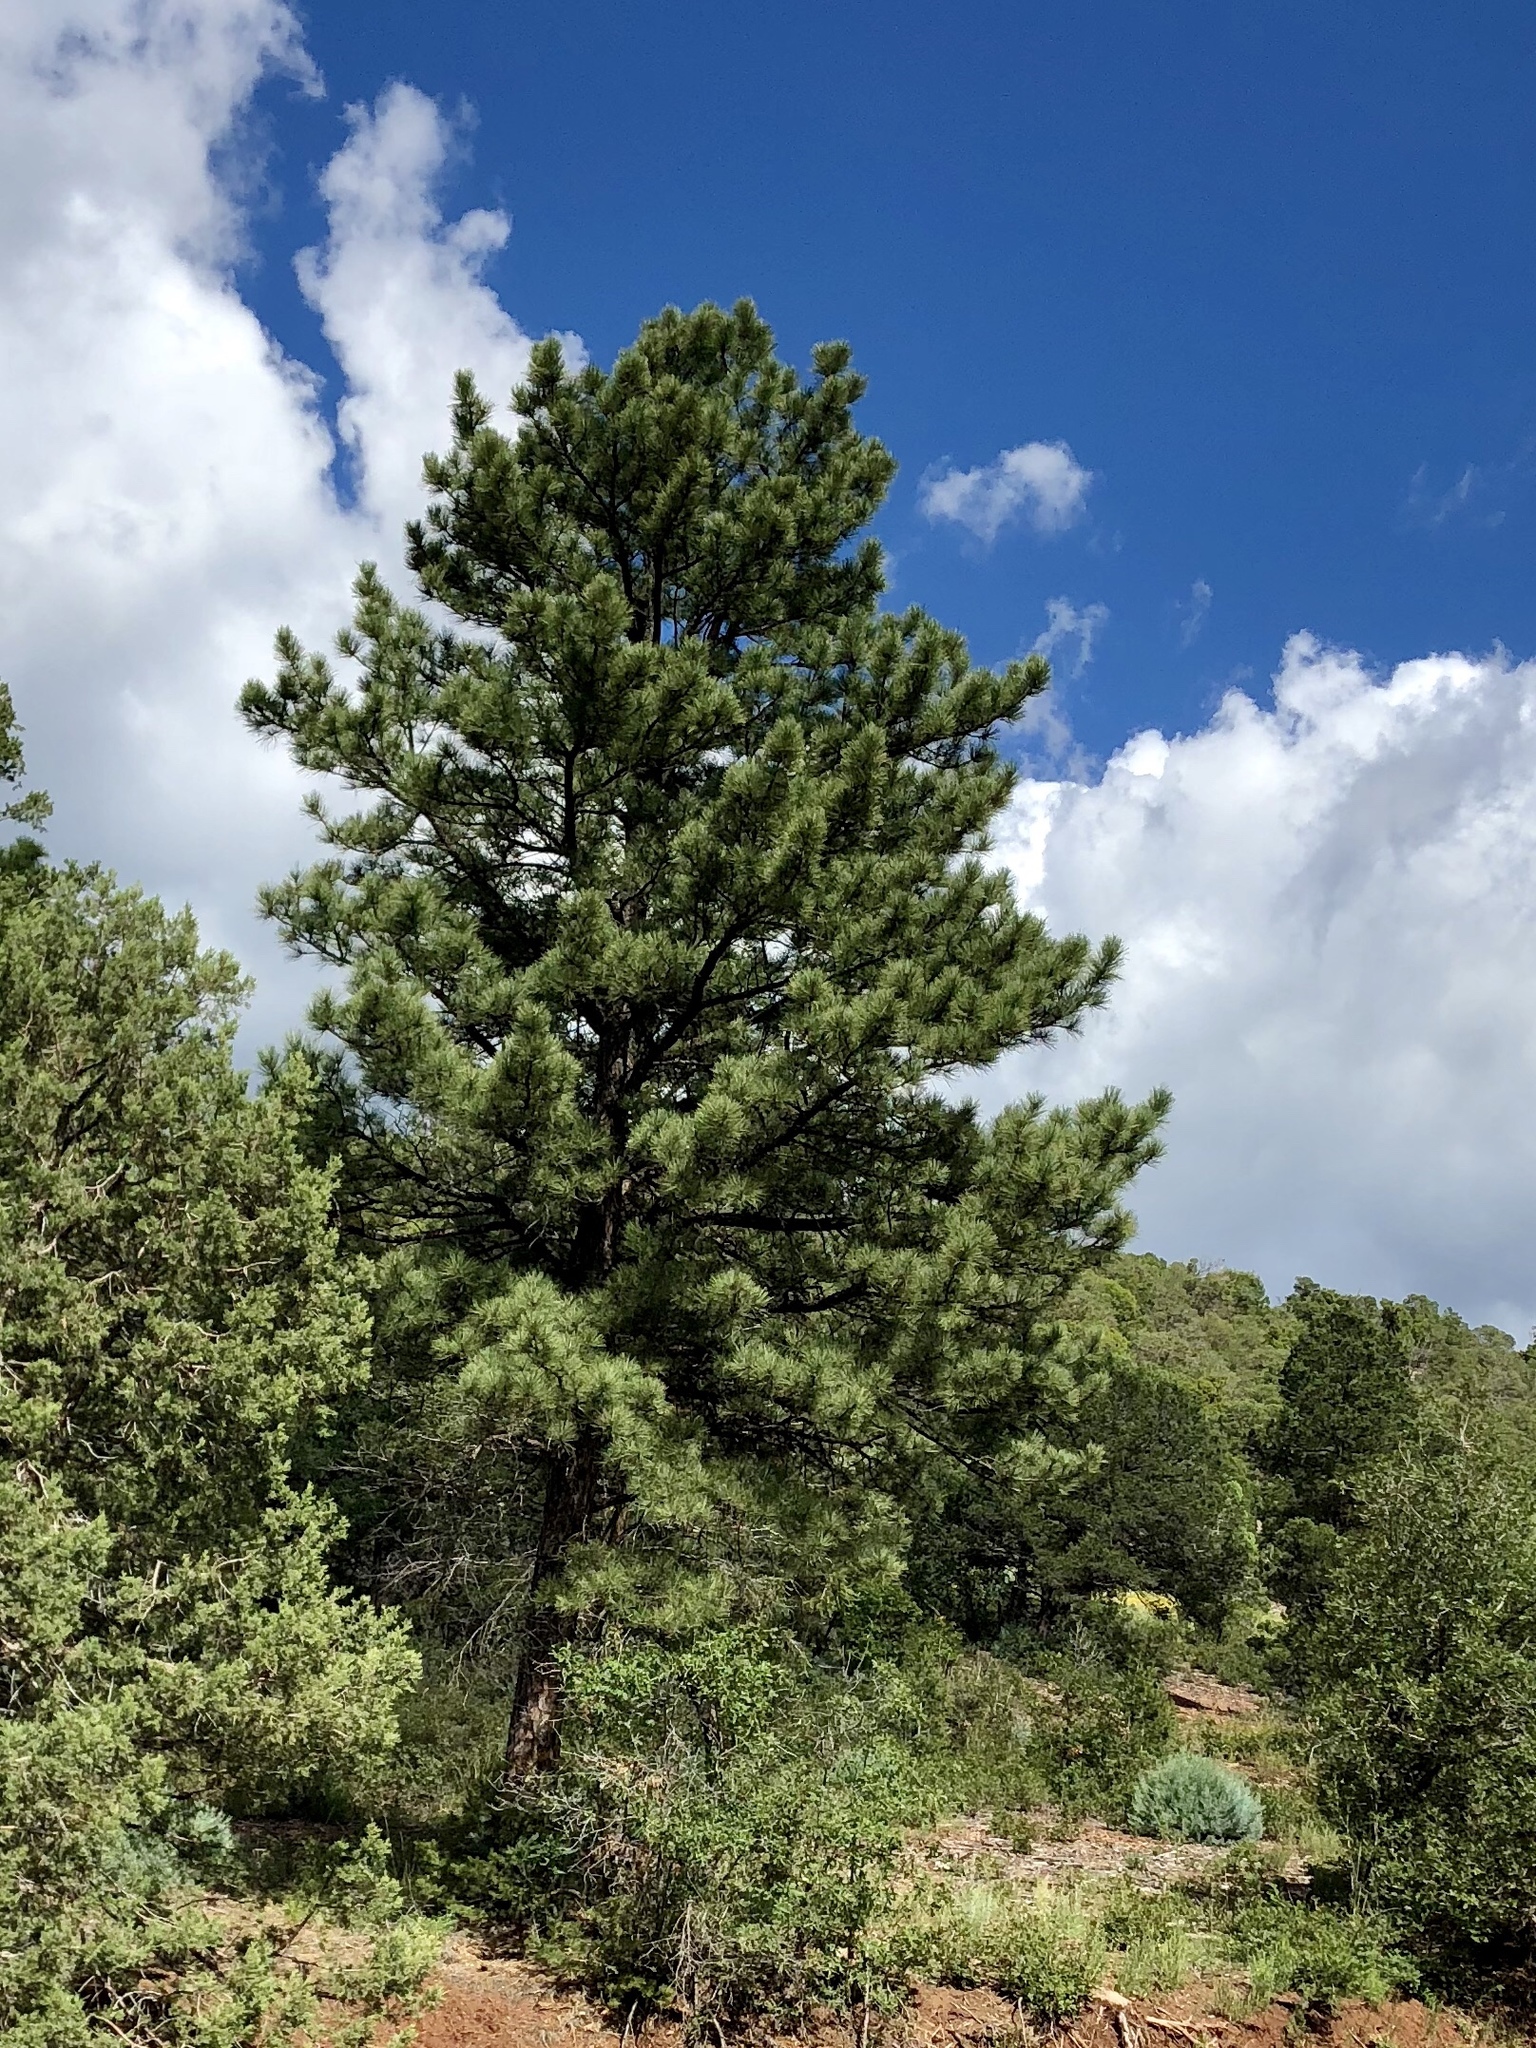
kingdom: Plantae
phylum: Tracheophyta
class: Pinopsida
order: Pinales
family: Pinaceae
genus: Pinus
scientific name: Pinus ponderosa
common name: Western yellow-pine
